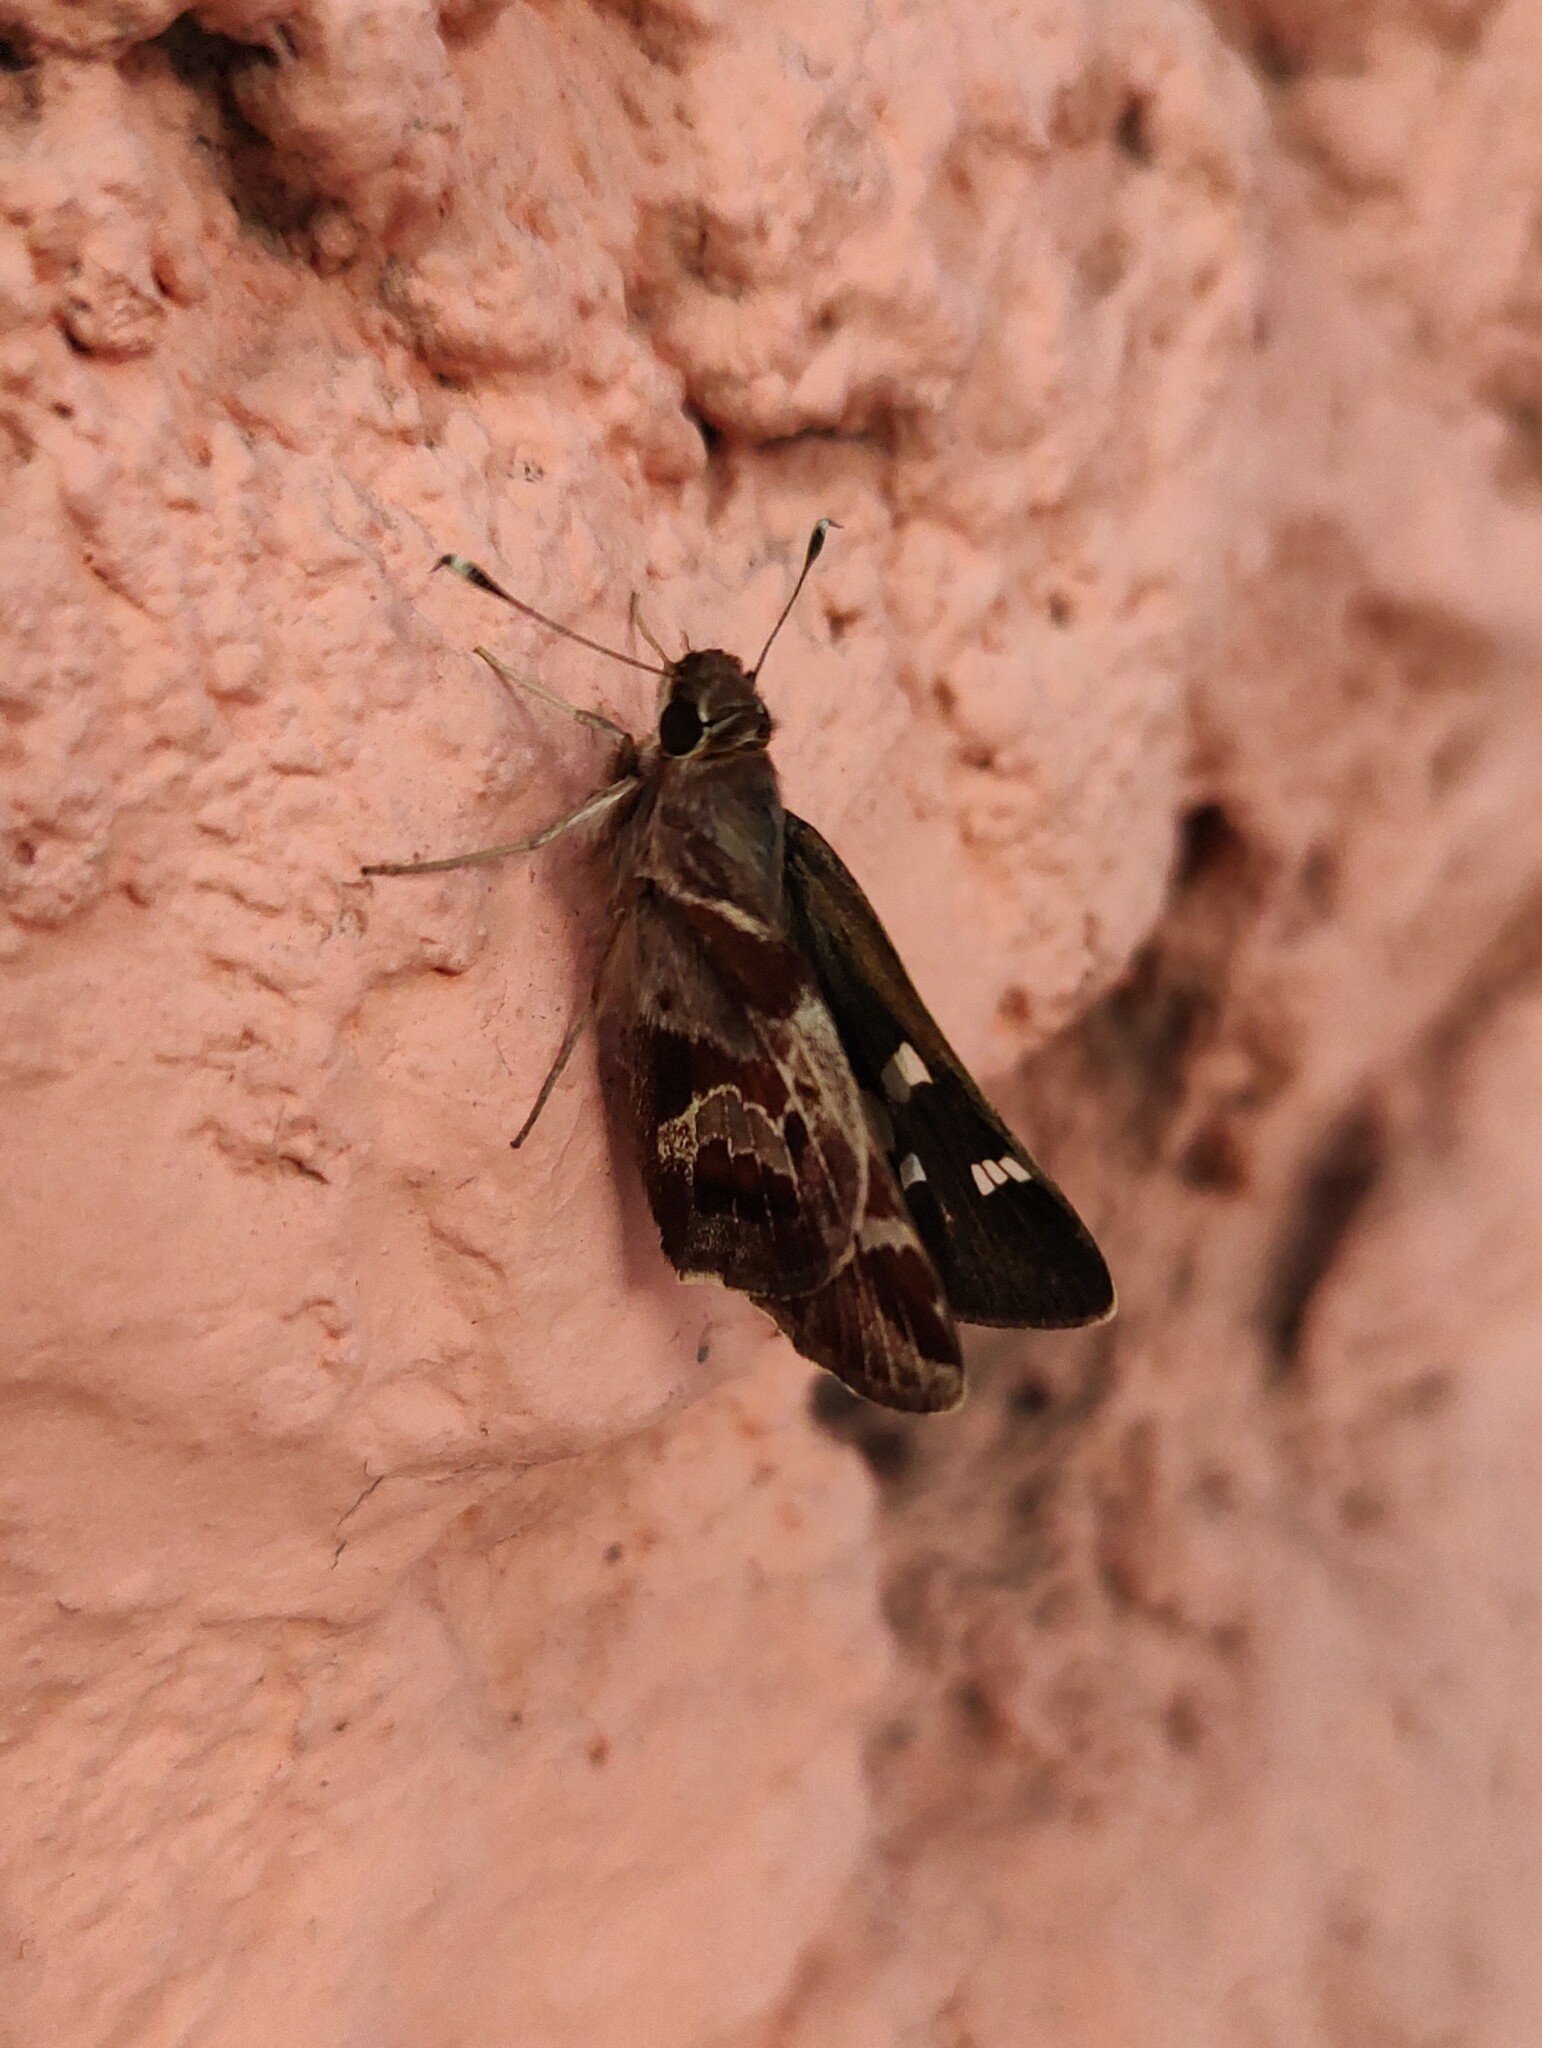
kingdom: Animalia
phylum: Arthropoda
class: Insecta
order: Lepidoptera
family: Hesperiidae
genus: Thespieus
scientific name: Thespieus macareus
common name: Chestnut-marked skipper
